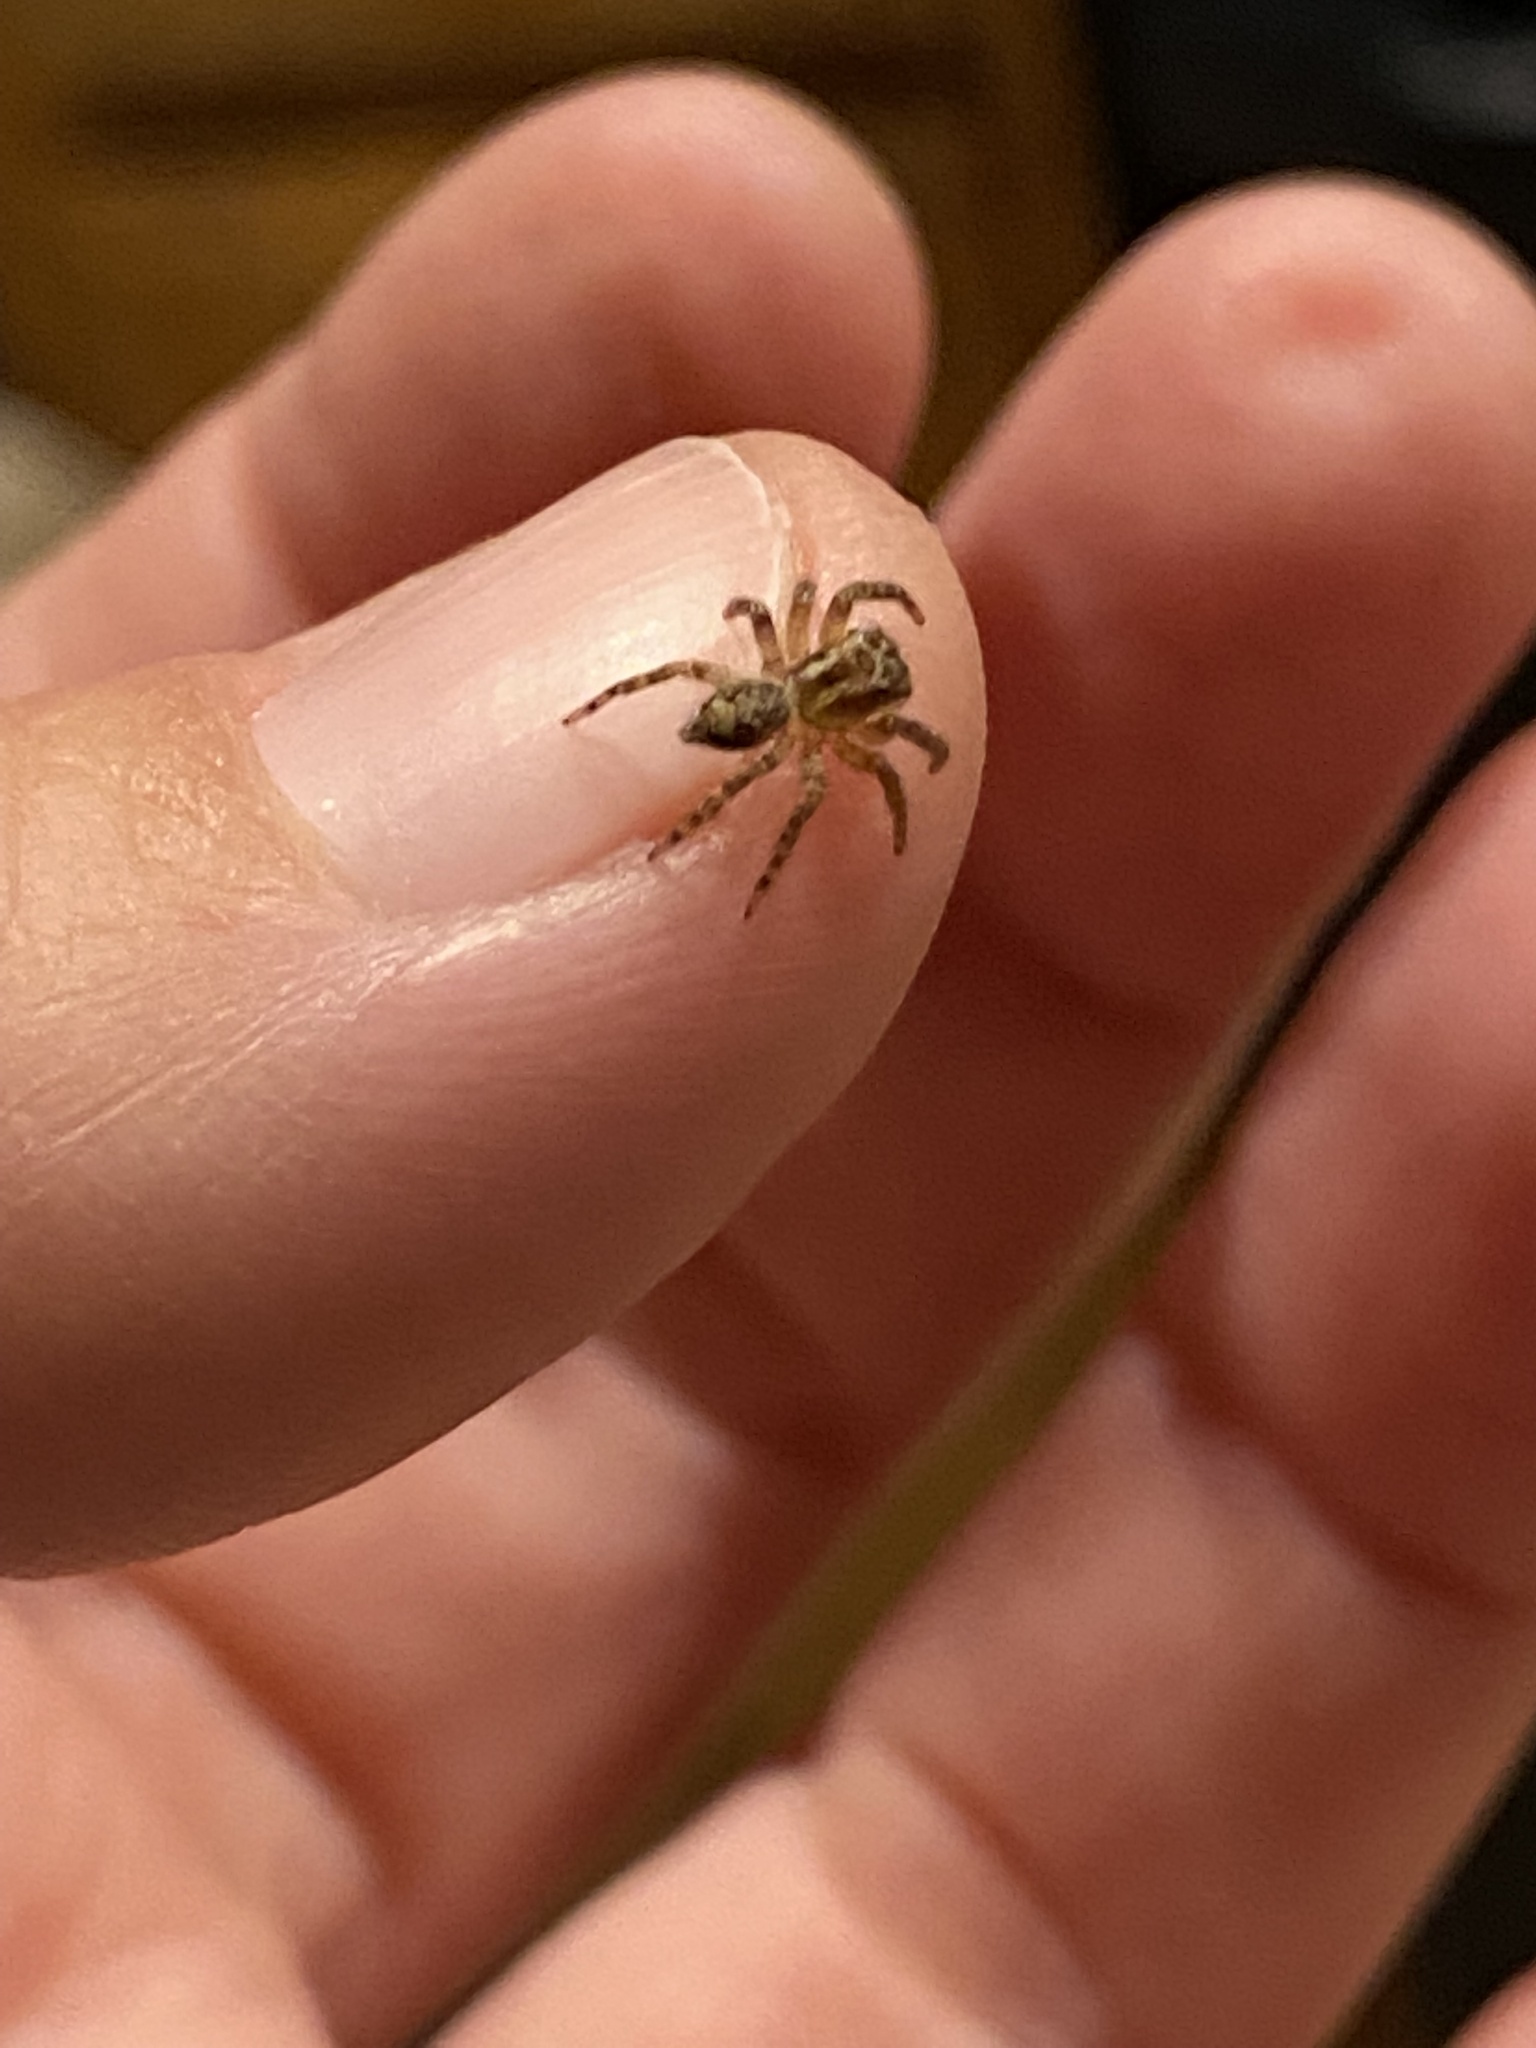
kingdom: Animalia
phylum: Arthropoda
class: Arachnida
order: Araneae
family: Salticidae
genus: Mexigonus
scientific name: Mexigonus morosus
